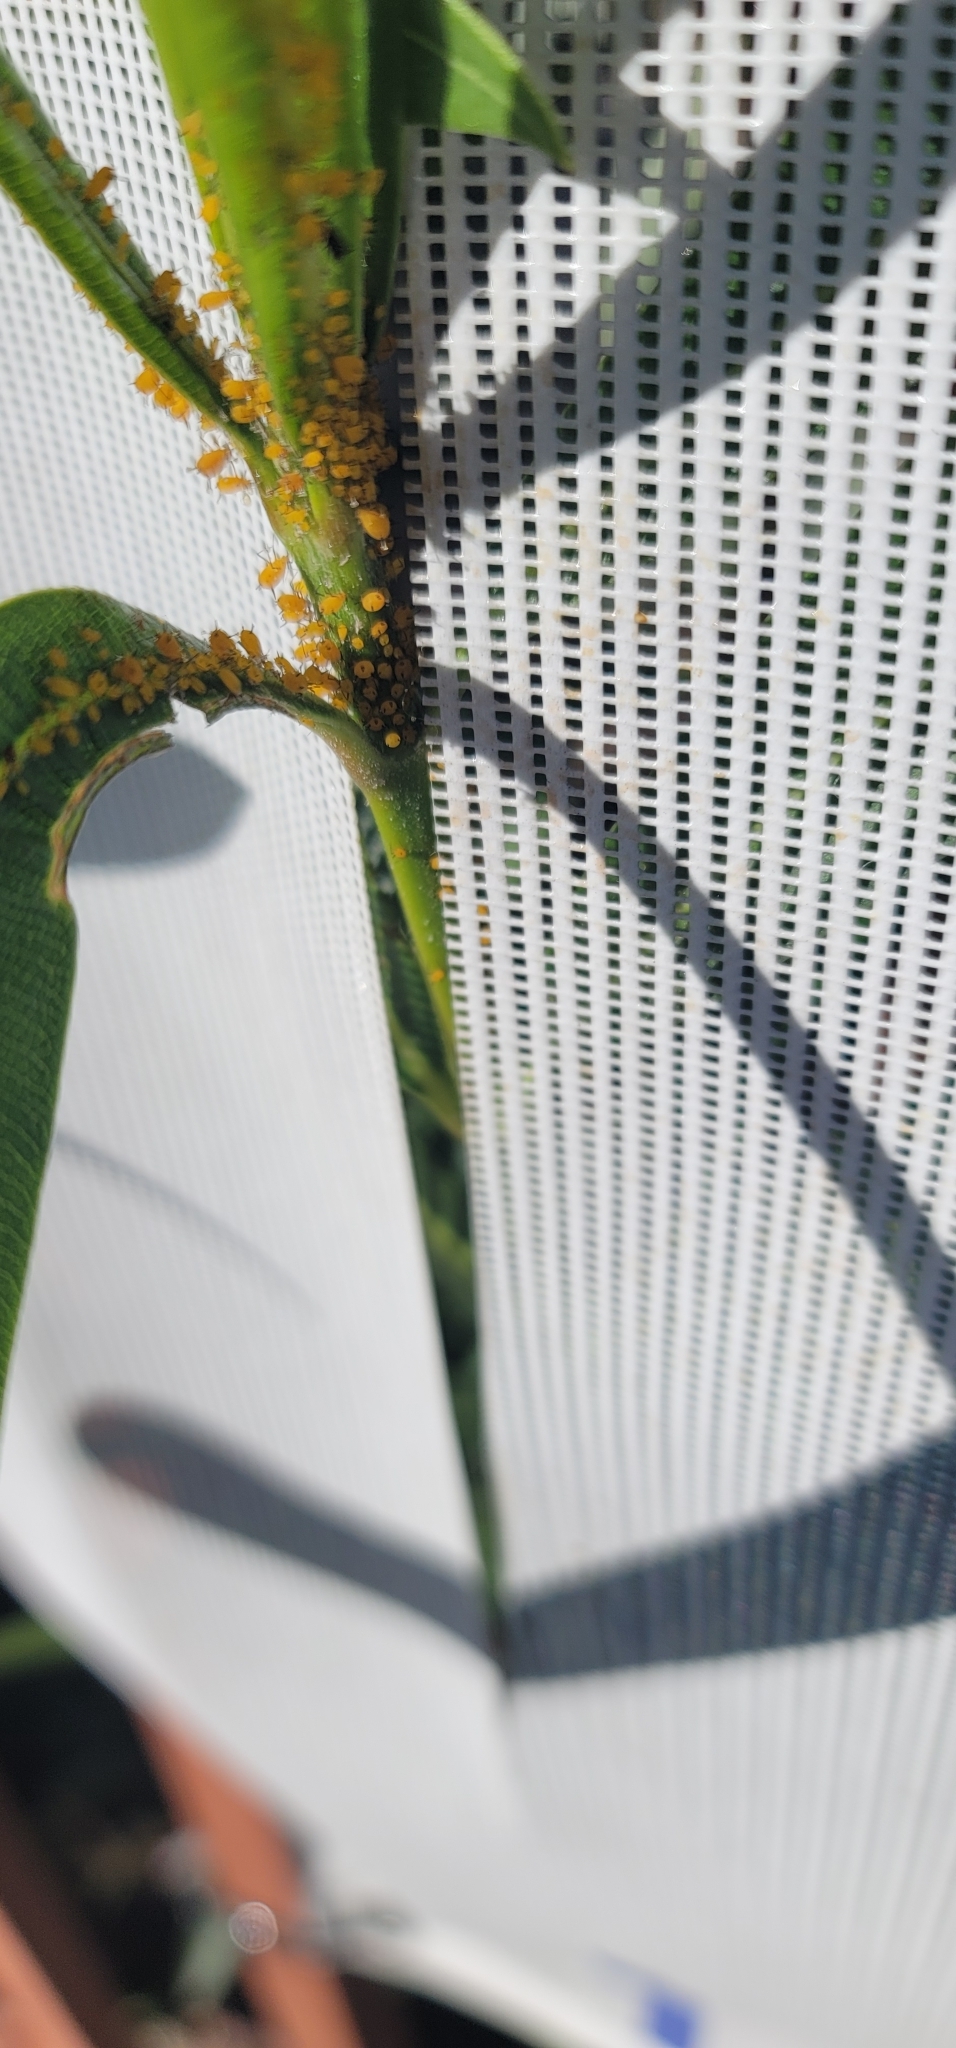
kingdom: Animalia
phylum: Arthropoda
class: Insecta
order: Hemiptera
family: Aphididae
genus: Aphis
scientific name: Aphis nerii
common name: Oleander aphid
